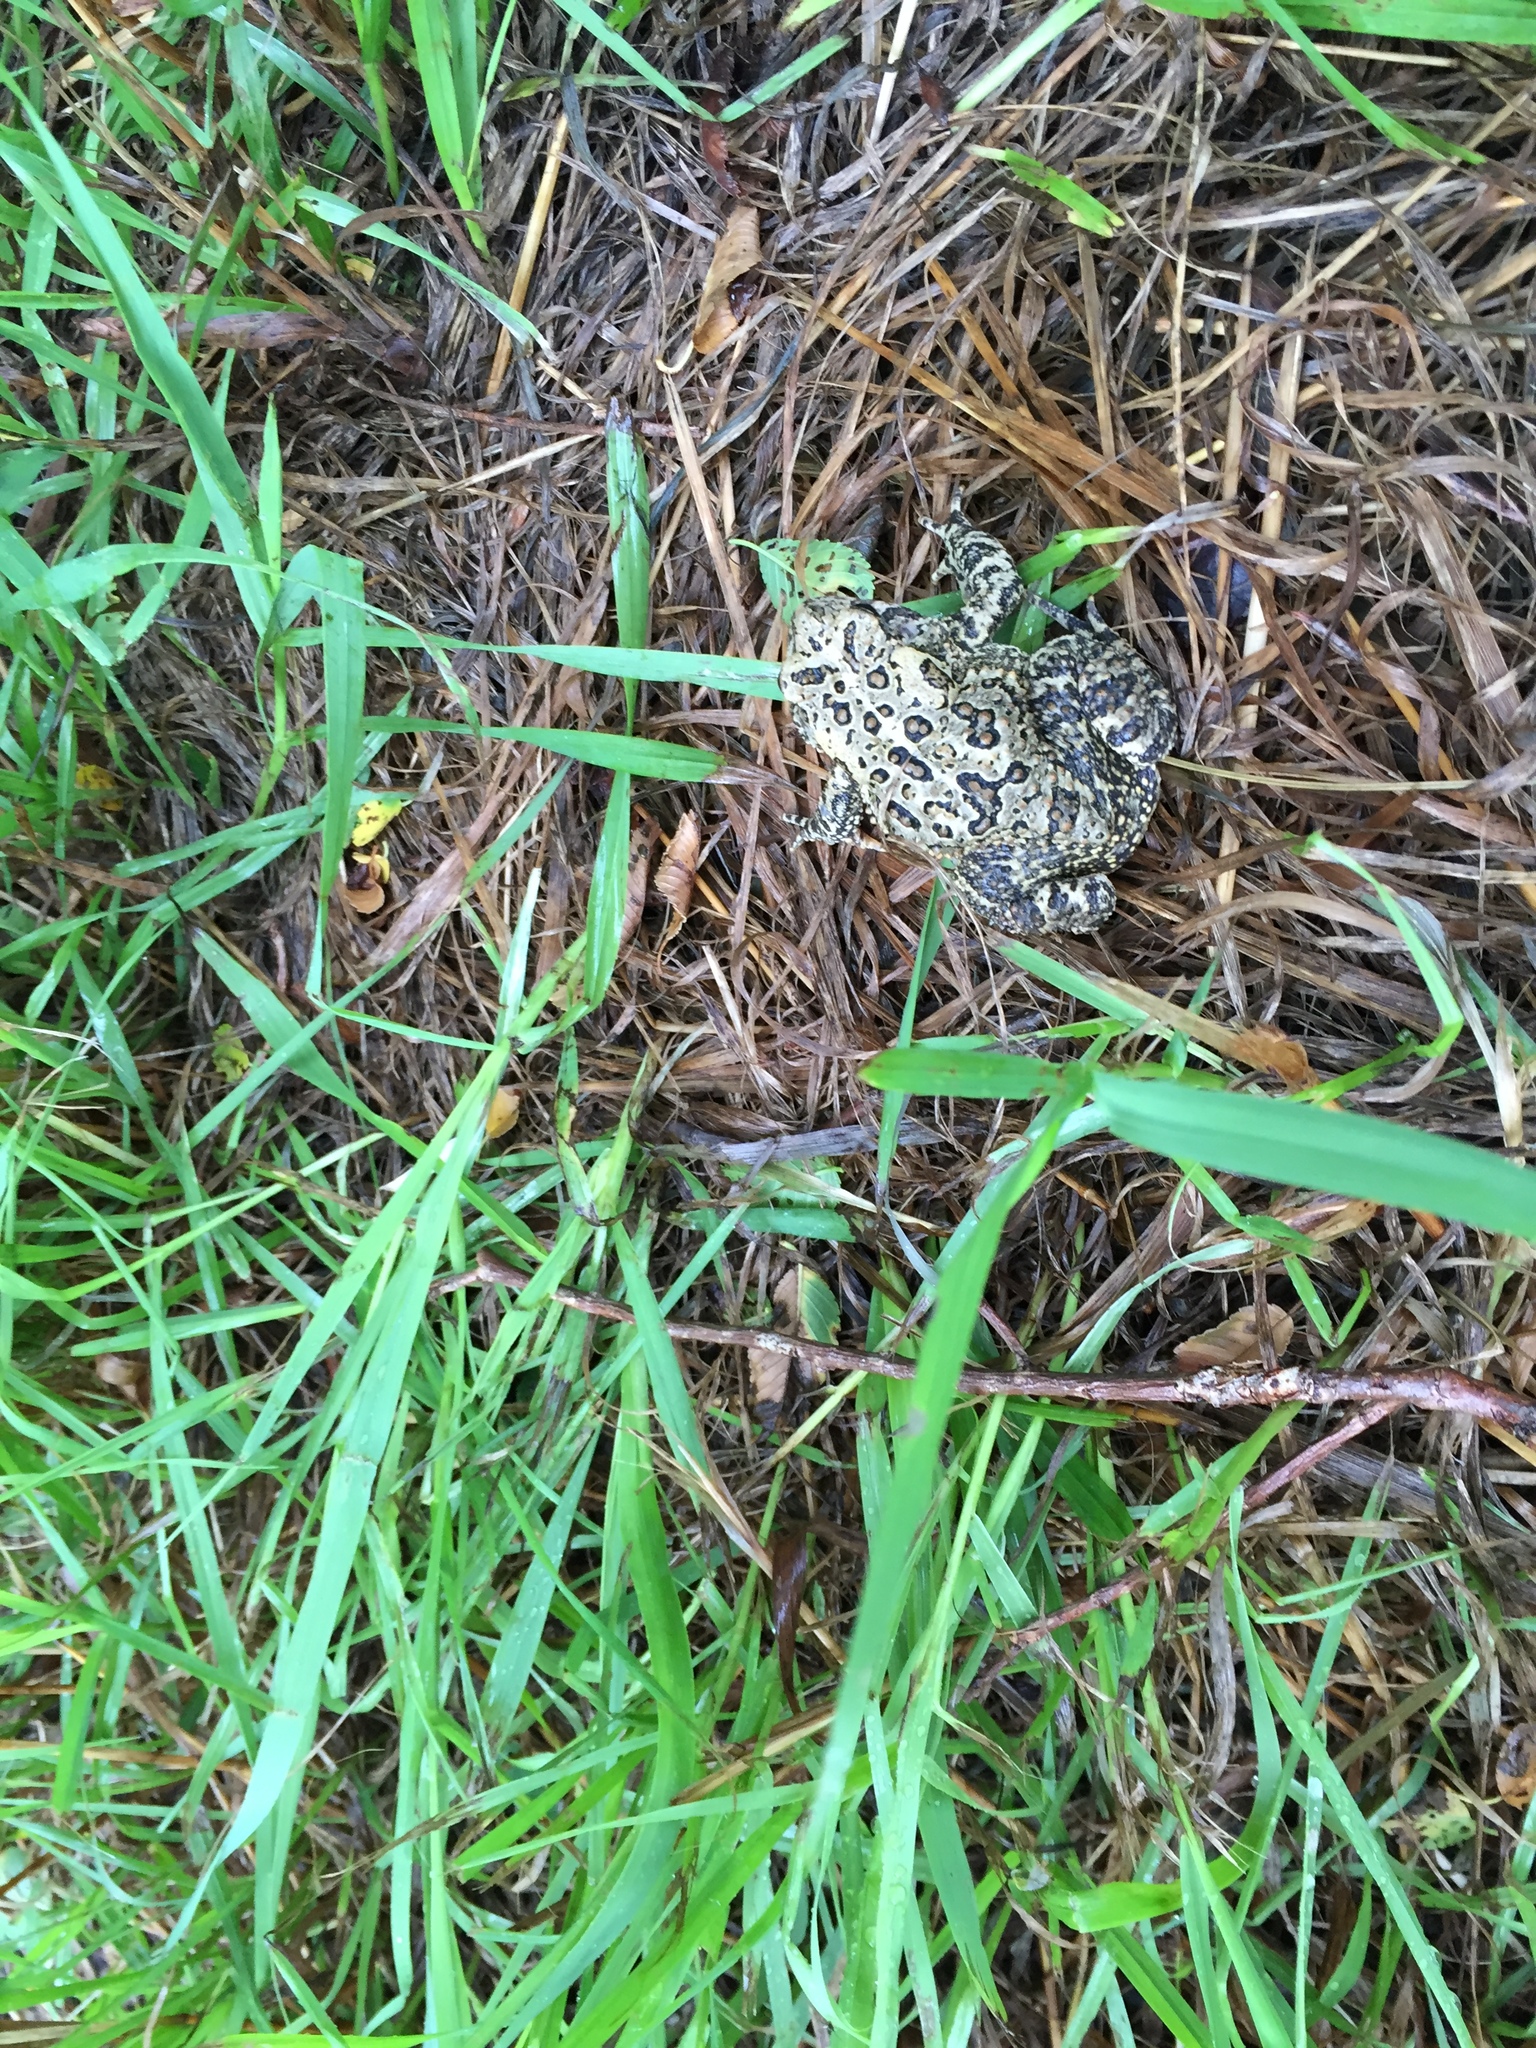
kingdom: Animalia
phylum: Chordata
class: Amphibia
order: Anura
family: Bufonidae
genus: Anaxyrus
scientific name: Anaxyrus americanus
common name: American toad
